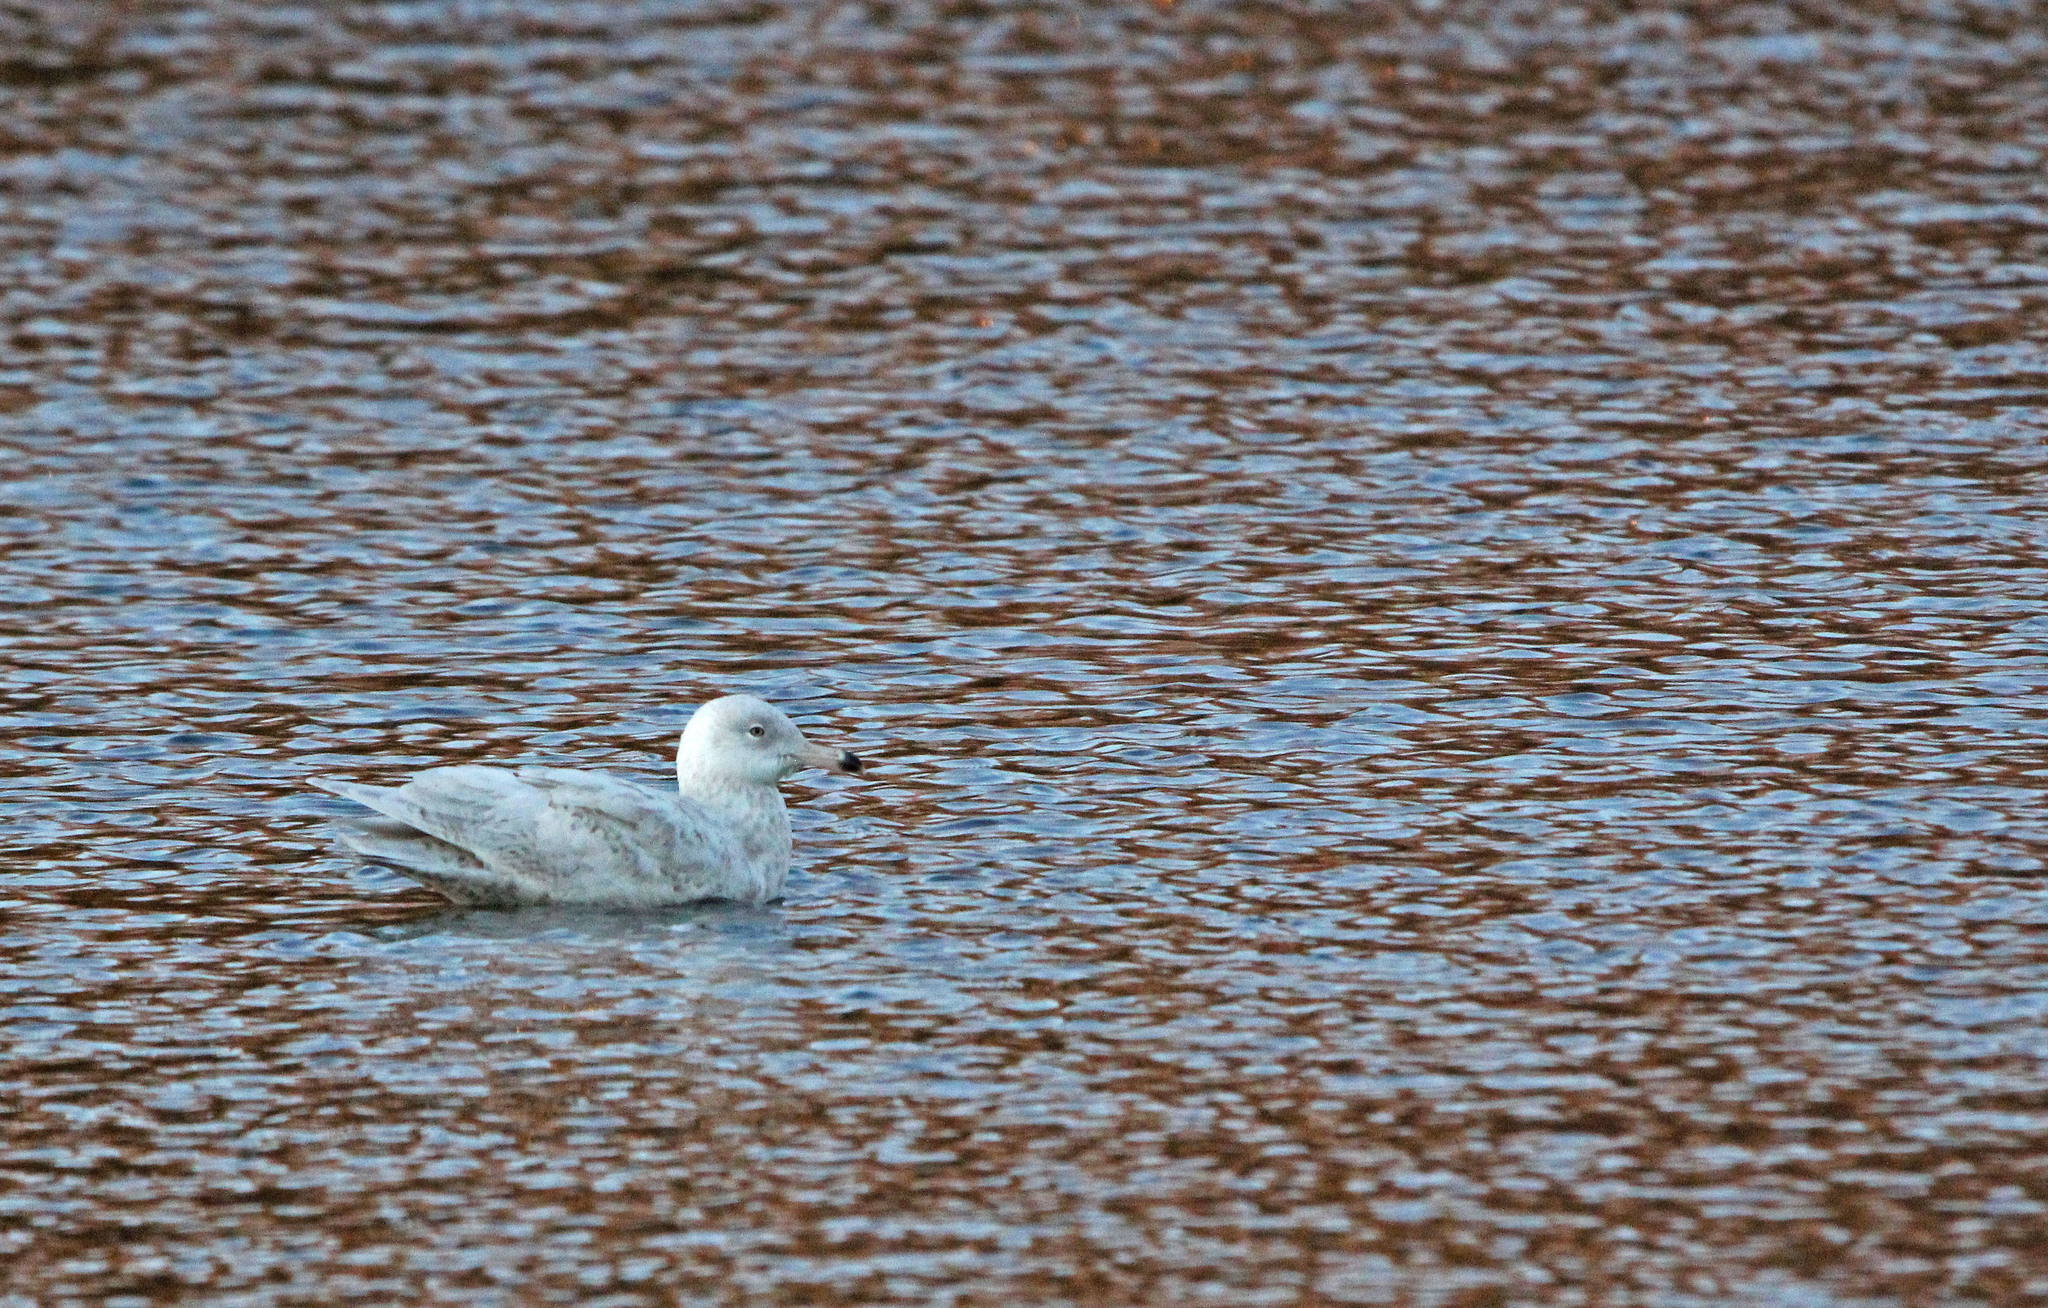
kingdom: Animalia
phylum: Chordata
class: Aves
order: Charadriiformes
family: Laridae
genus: Larus
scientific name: Larus hyperboreus
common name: Glaucous gull
